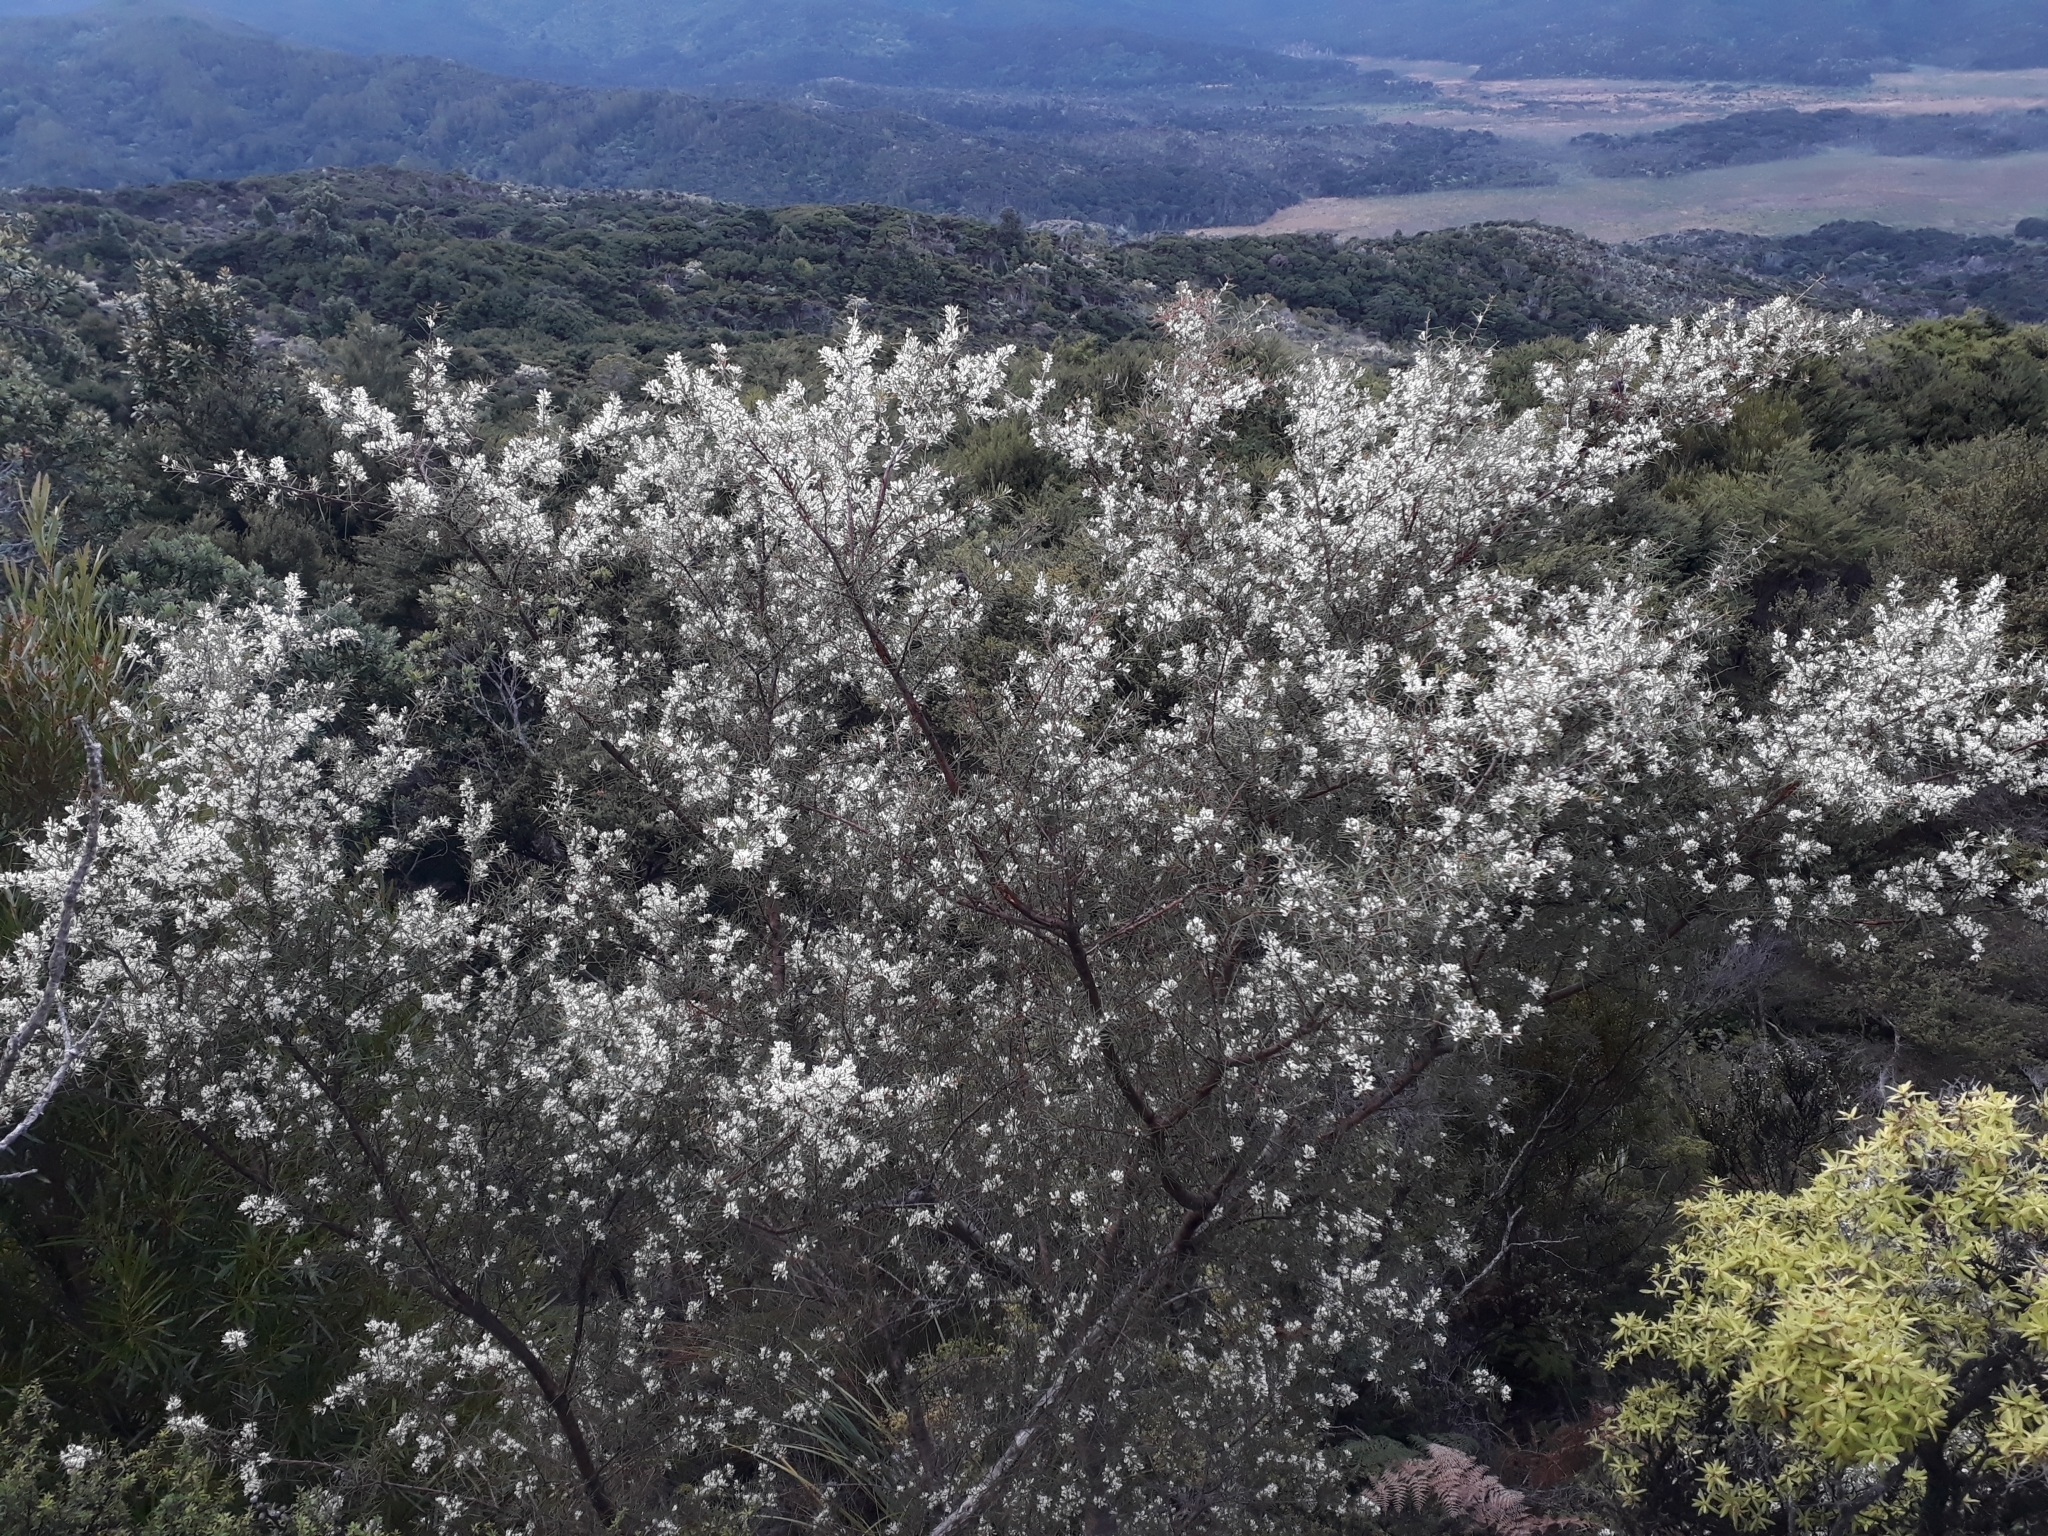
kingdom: Plantae
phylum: Tracheophyta
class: Magnoliopsida
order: Proteales
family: Proteaceae
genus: Hakea
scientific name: Hakea sericea
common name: Needle bush
